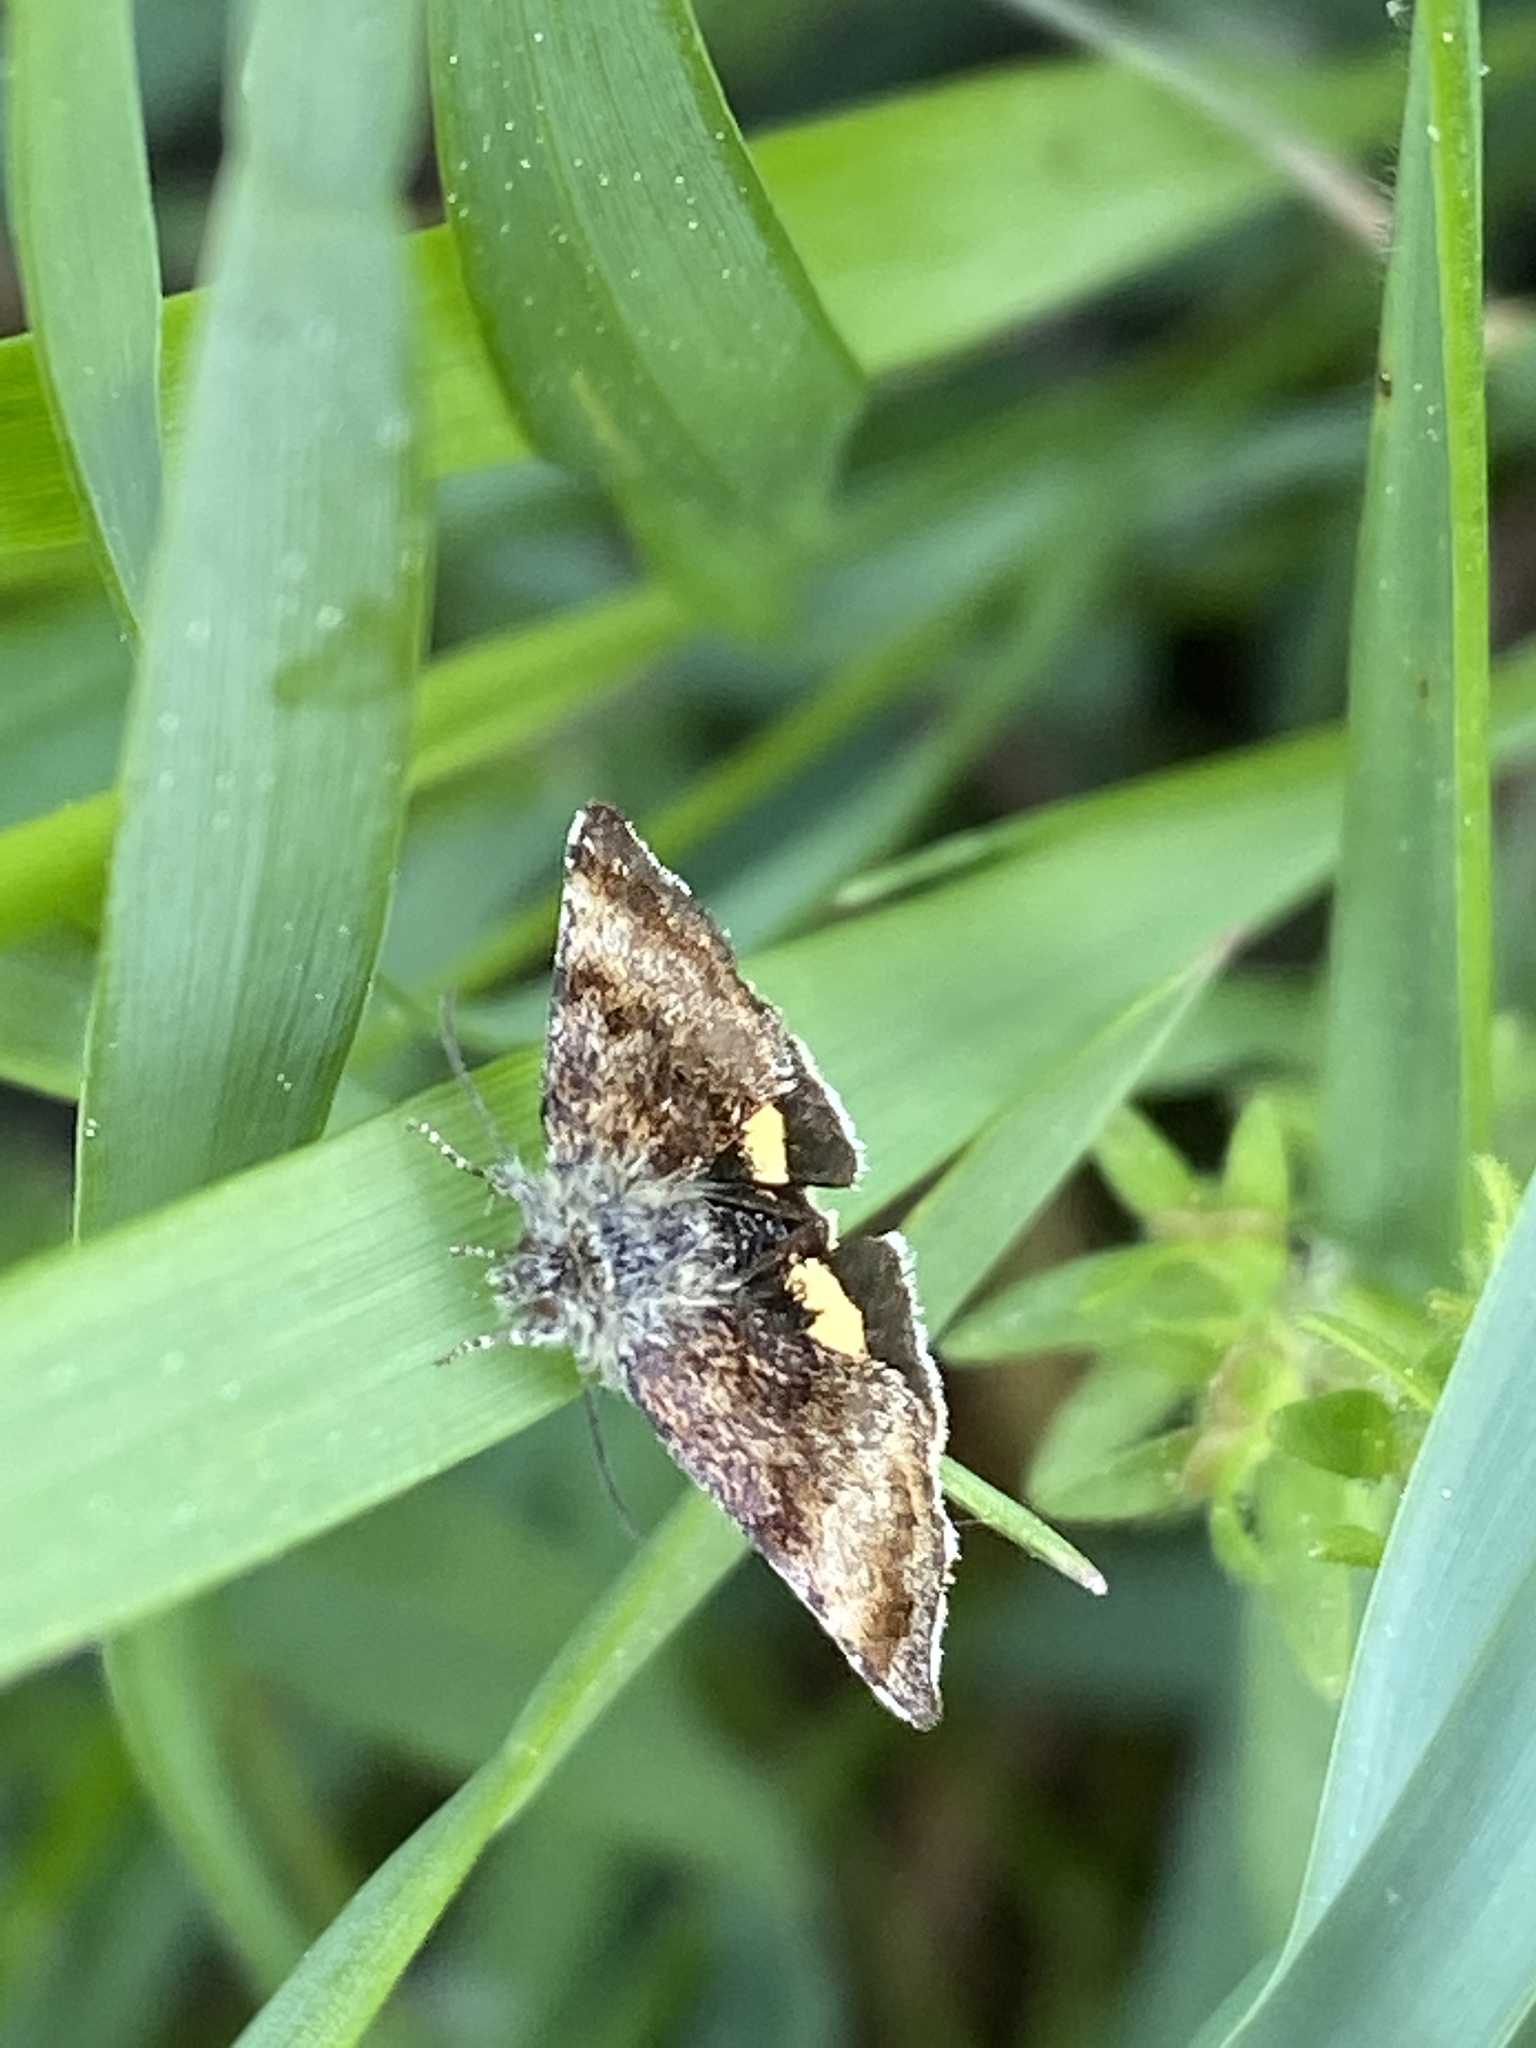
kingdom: Animalia
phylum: Arthropoda
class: Insecta
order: Lepidoptera
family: Noctuidae
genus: Panemeria
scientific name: Panemeria tenebrata
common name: Small yellow underwing
